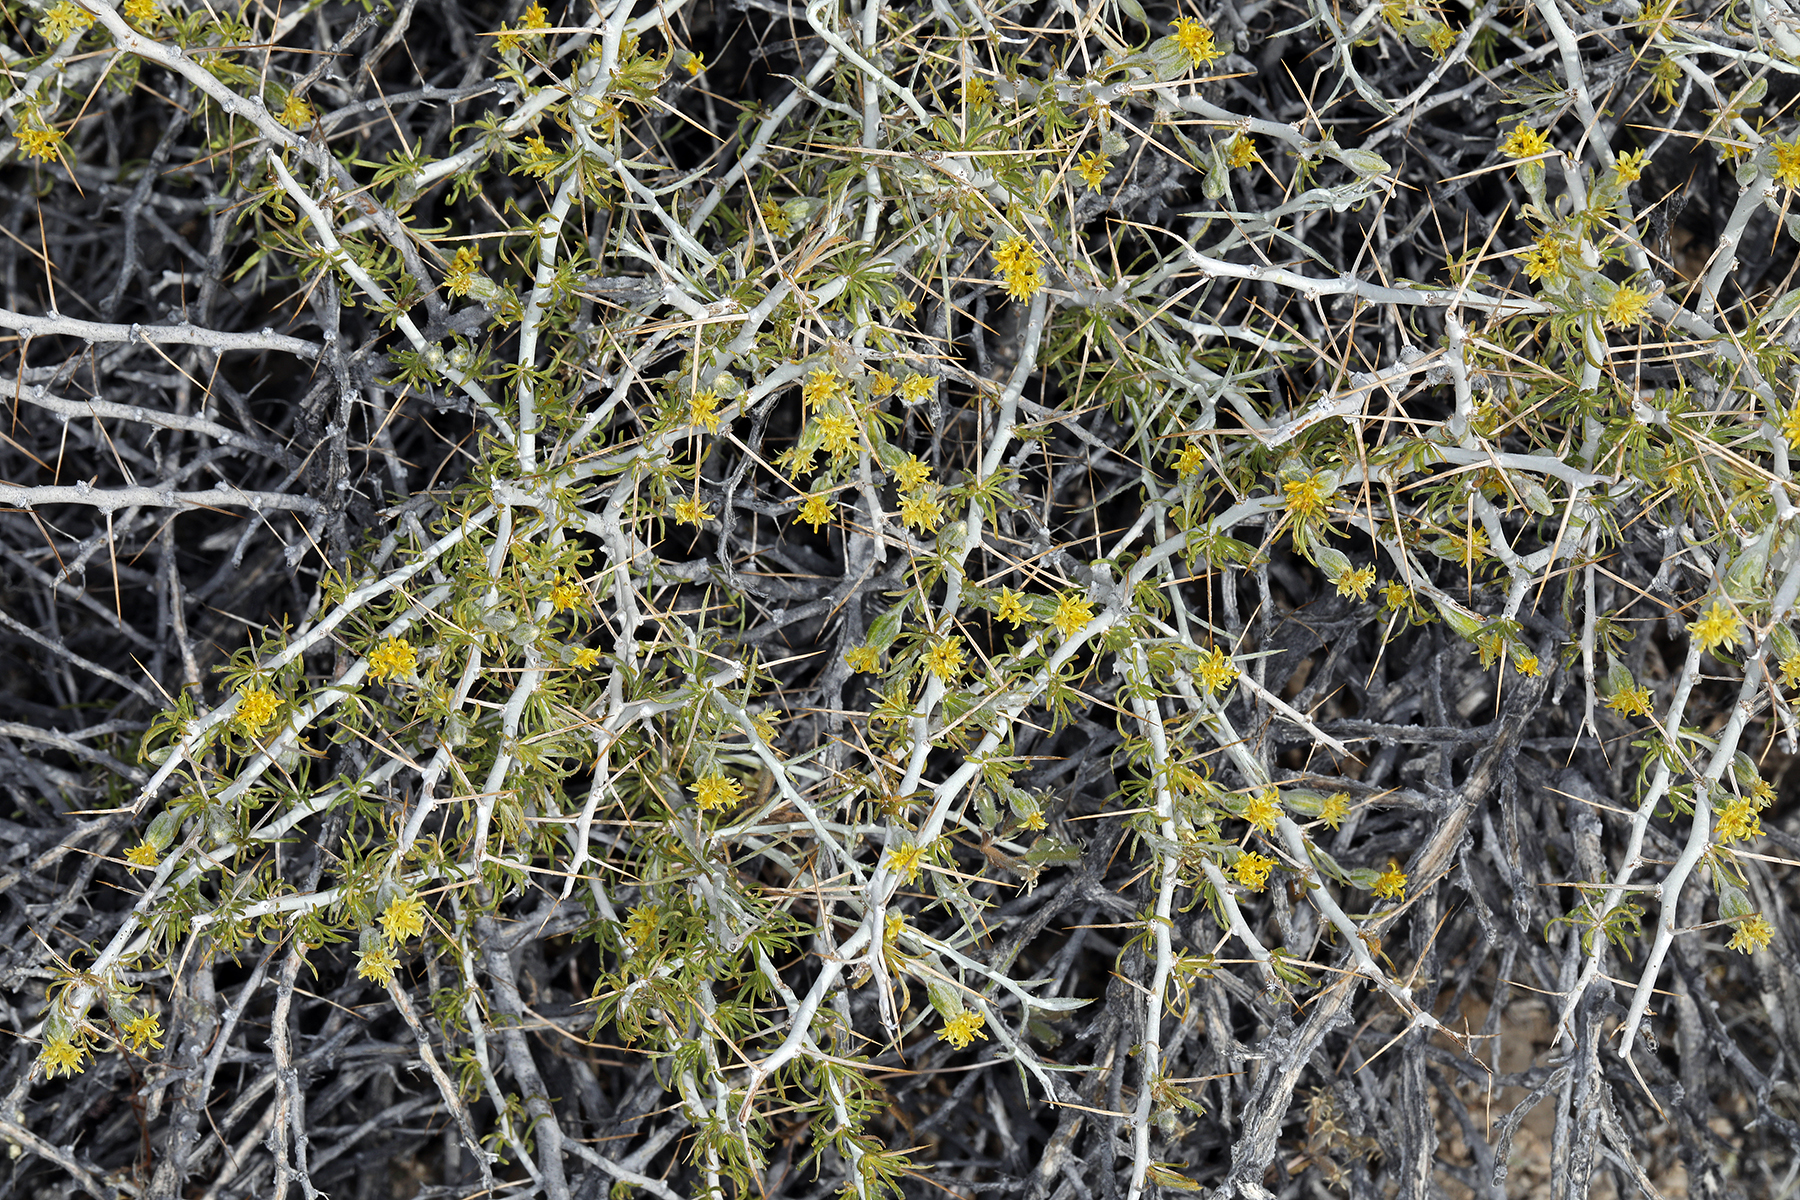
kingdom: Plantae
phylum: Tracheophyta
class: Magnoliopsida
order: Asterales
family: Asteraceae
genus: Tetradymia
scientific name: Tetradymia axillaris
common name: Long-spine horsebrush
